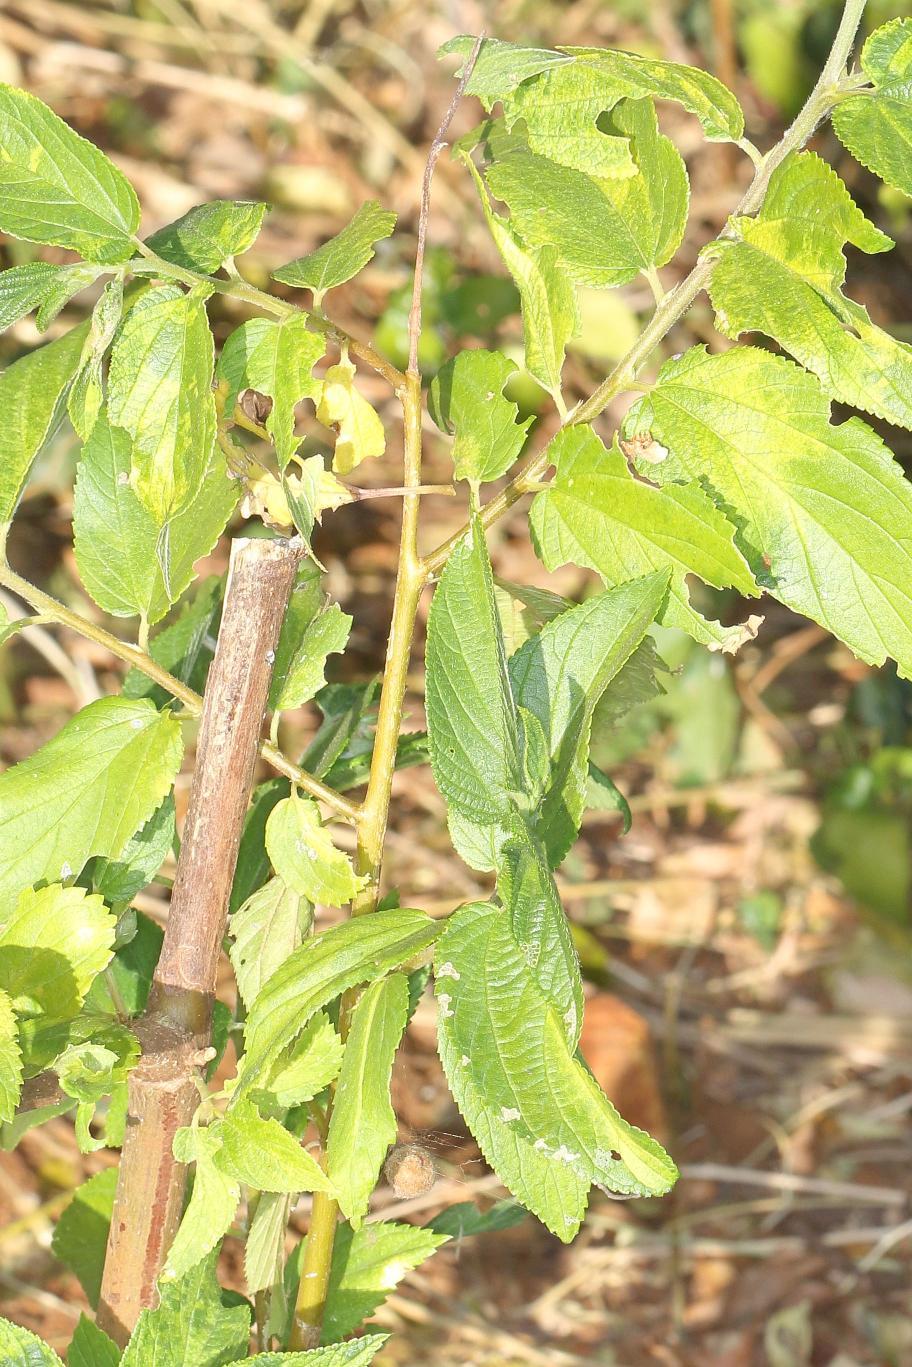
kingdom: Plantae
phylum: Tracheophyta
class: Magnoliopsida
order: Rosales
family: Cannabaceae
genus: Trema
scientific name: Trema orientale
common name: Indian charcoal tree
